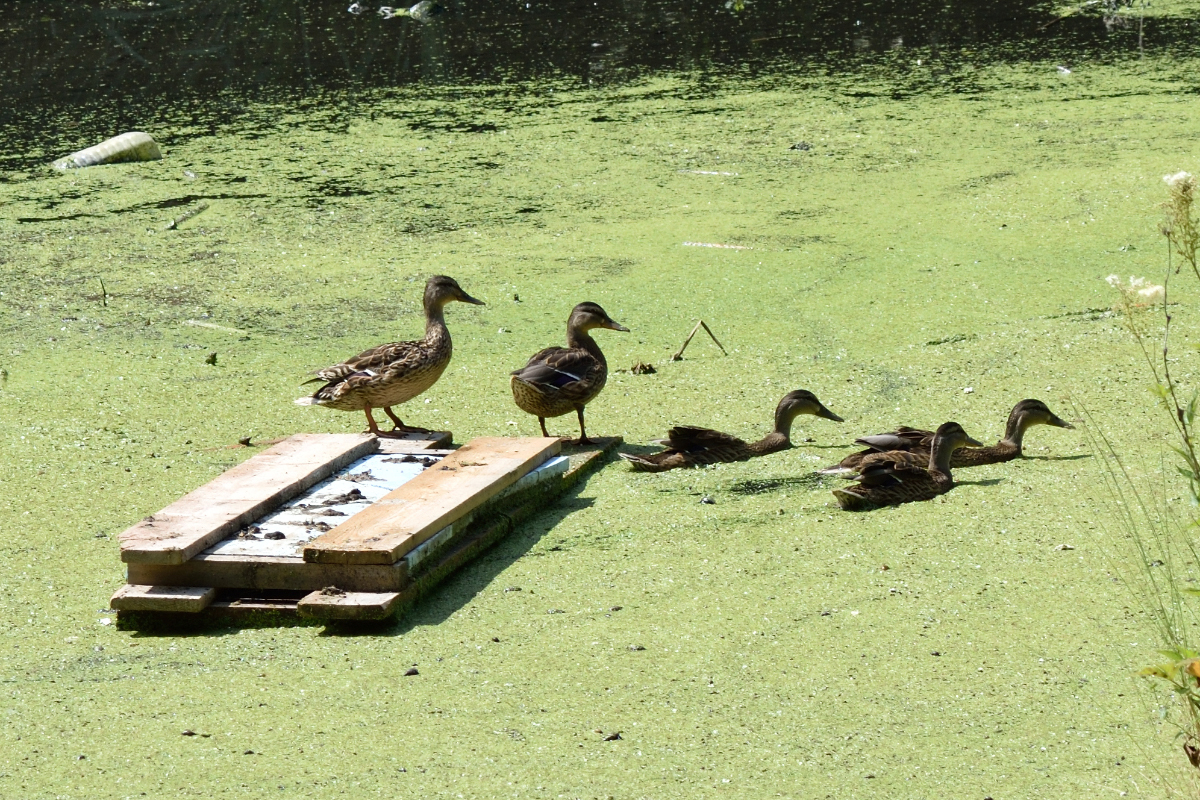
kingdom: Animalia
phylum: Chordata
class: Aves
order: Anseriformes
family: Anatidae
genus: Anas
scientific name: Anas platyrhynchos
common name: Mallard
